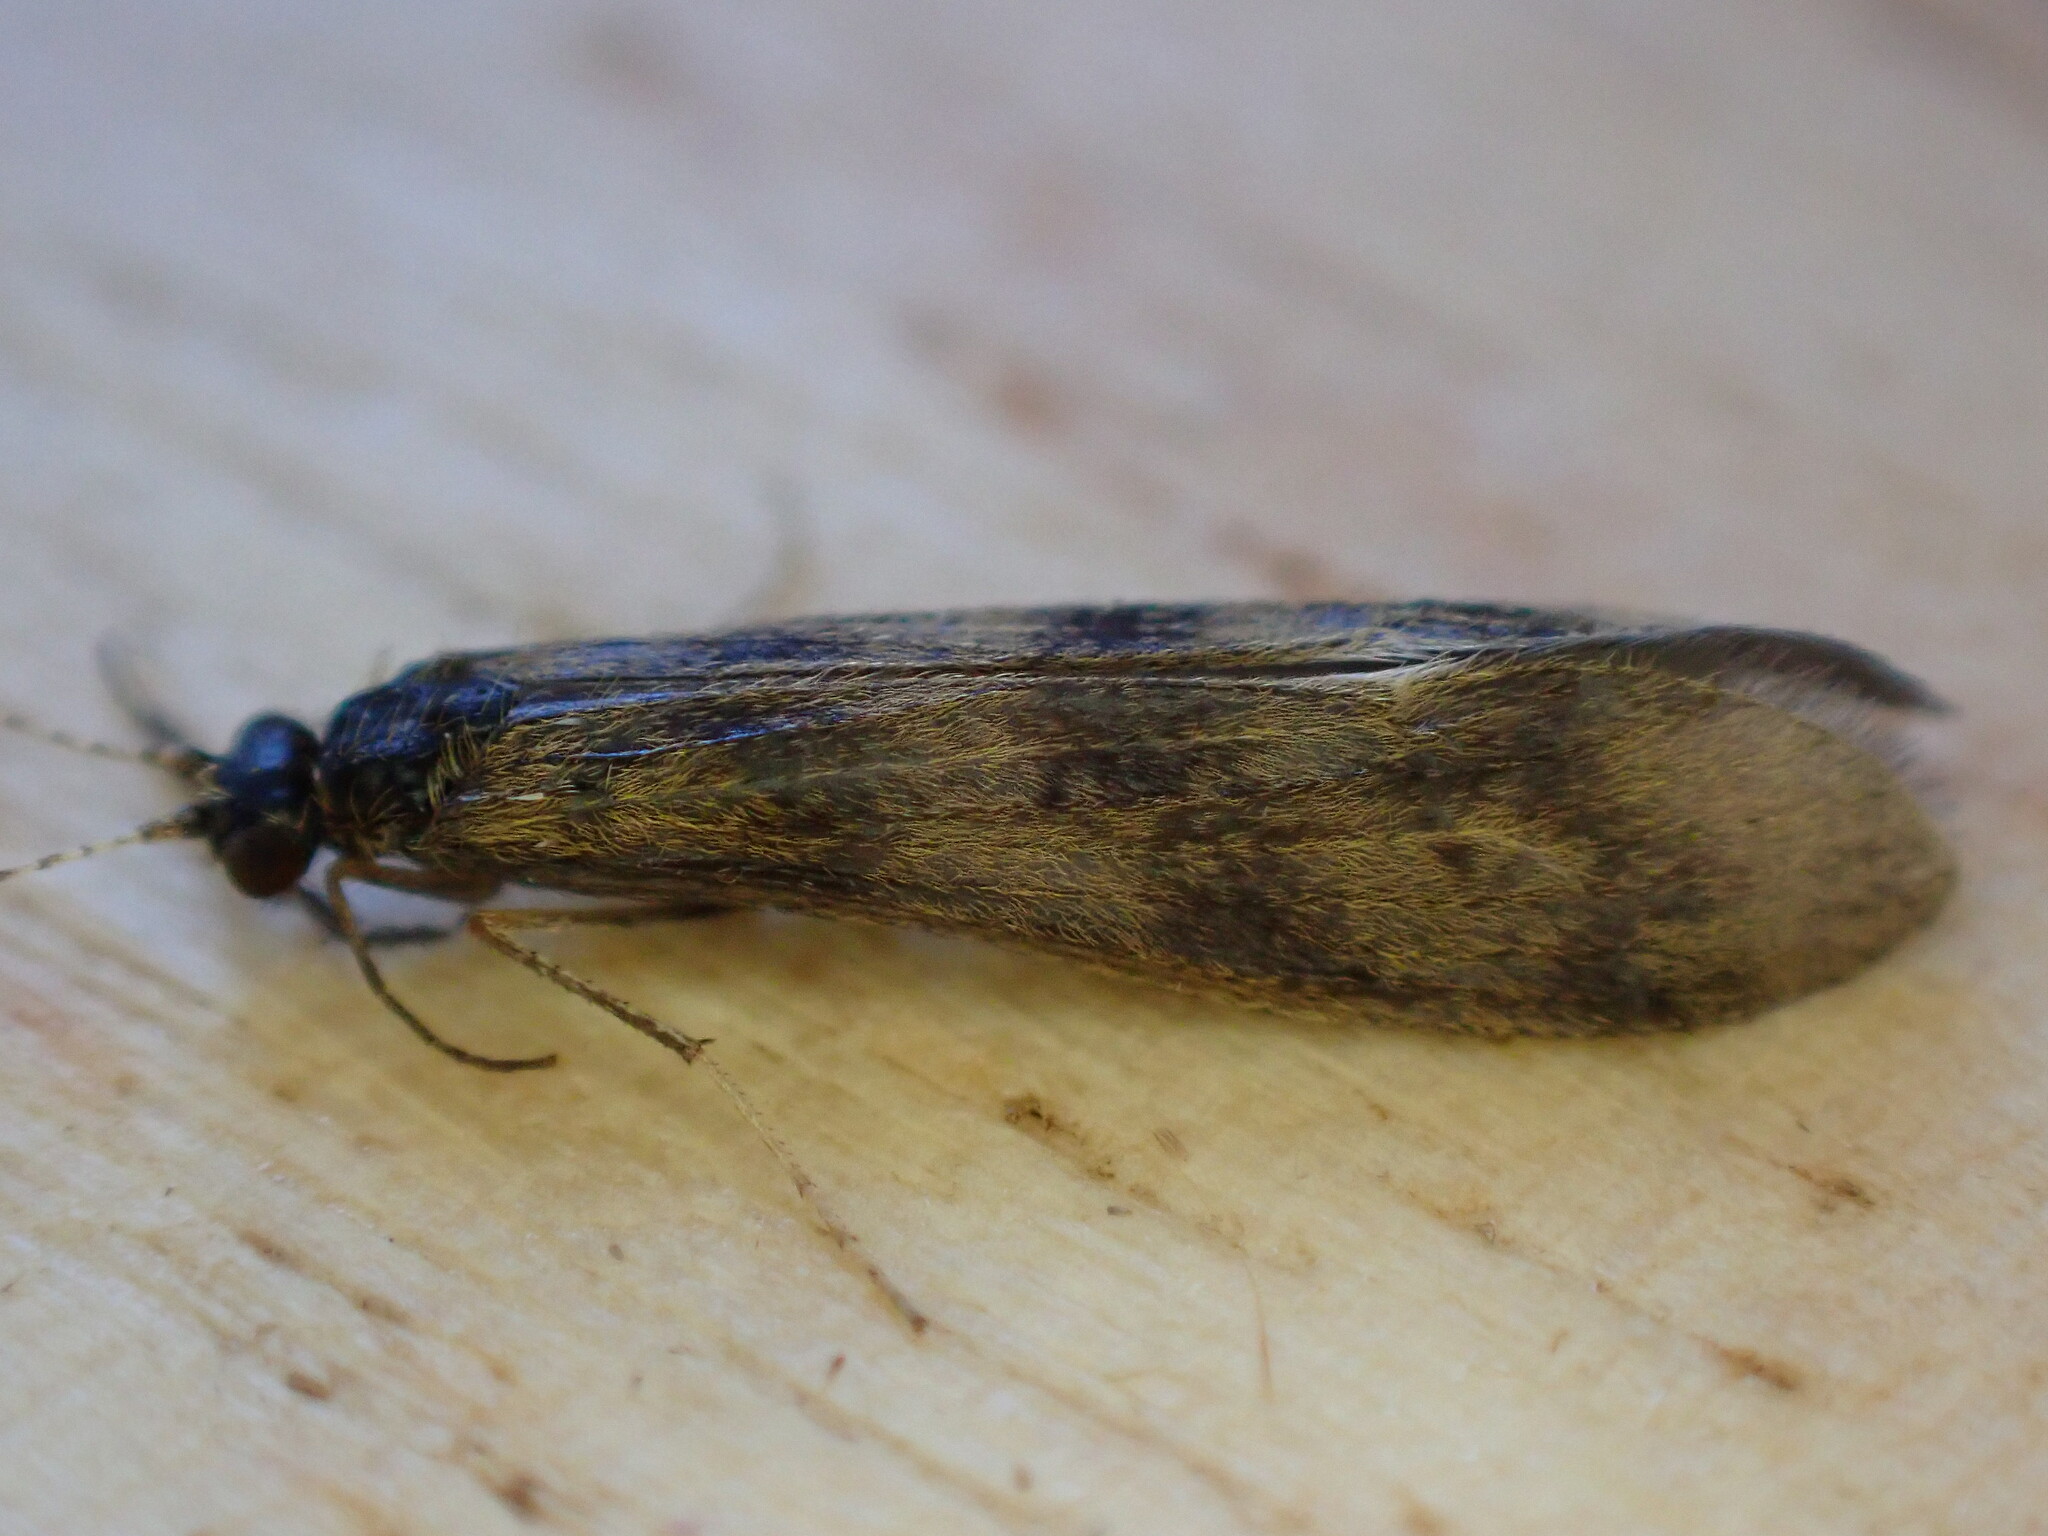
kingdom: Animalia
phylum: Arthropoda
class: Insecta
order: Trichoptera
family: Leptoceridae
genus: Mystacides
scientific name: Mystacides longicornis
